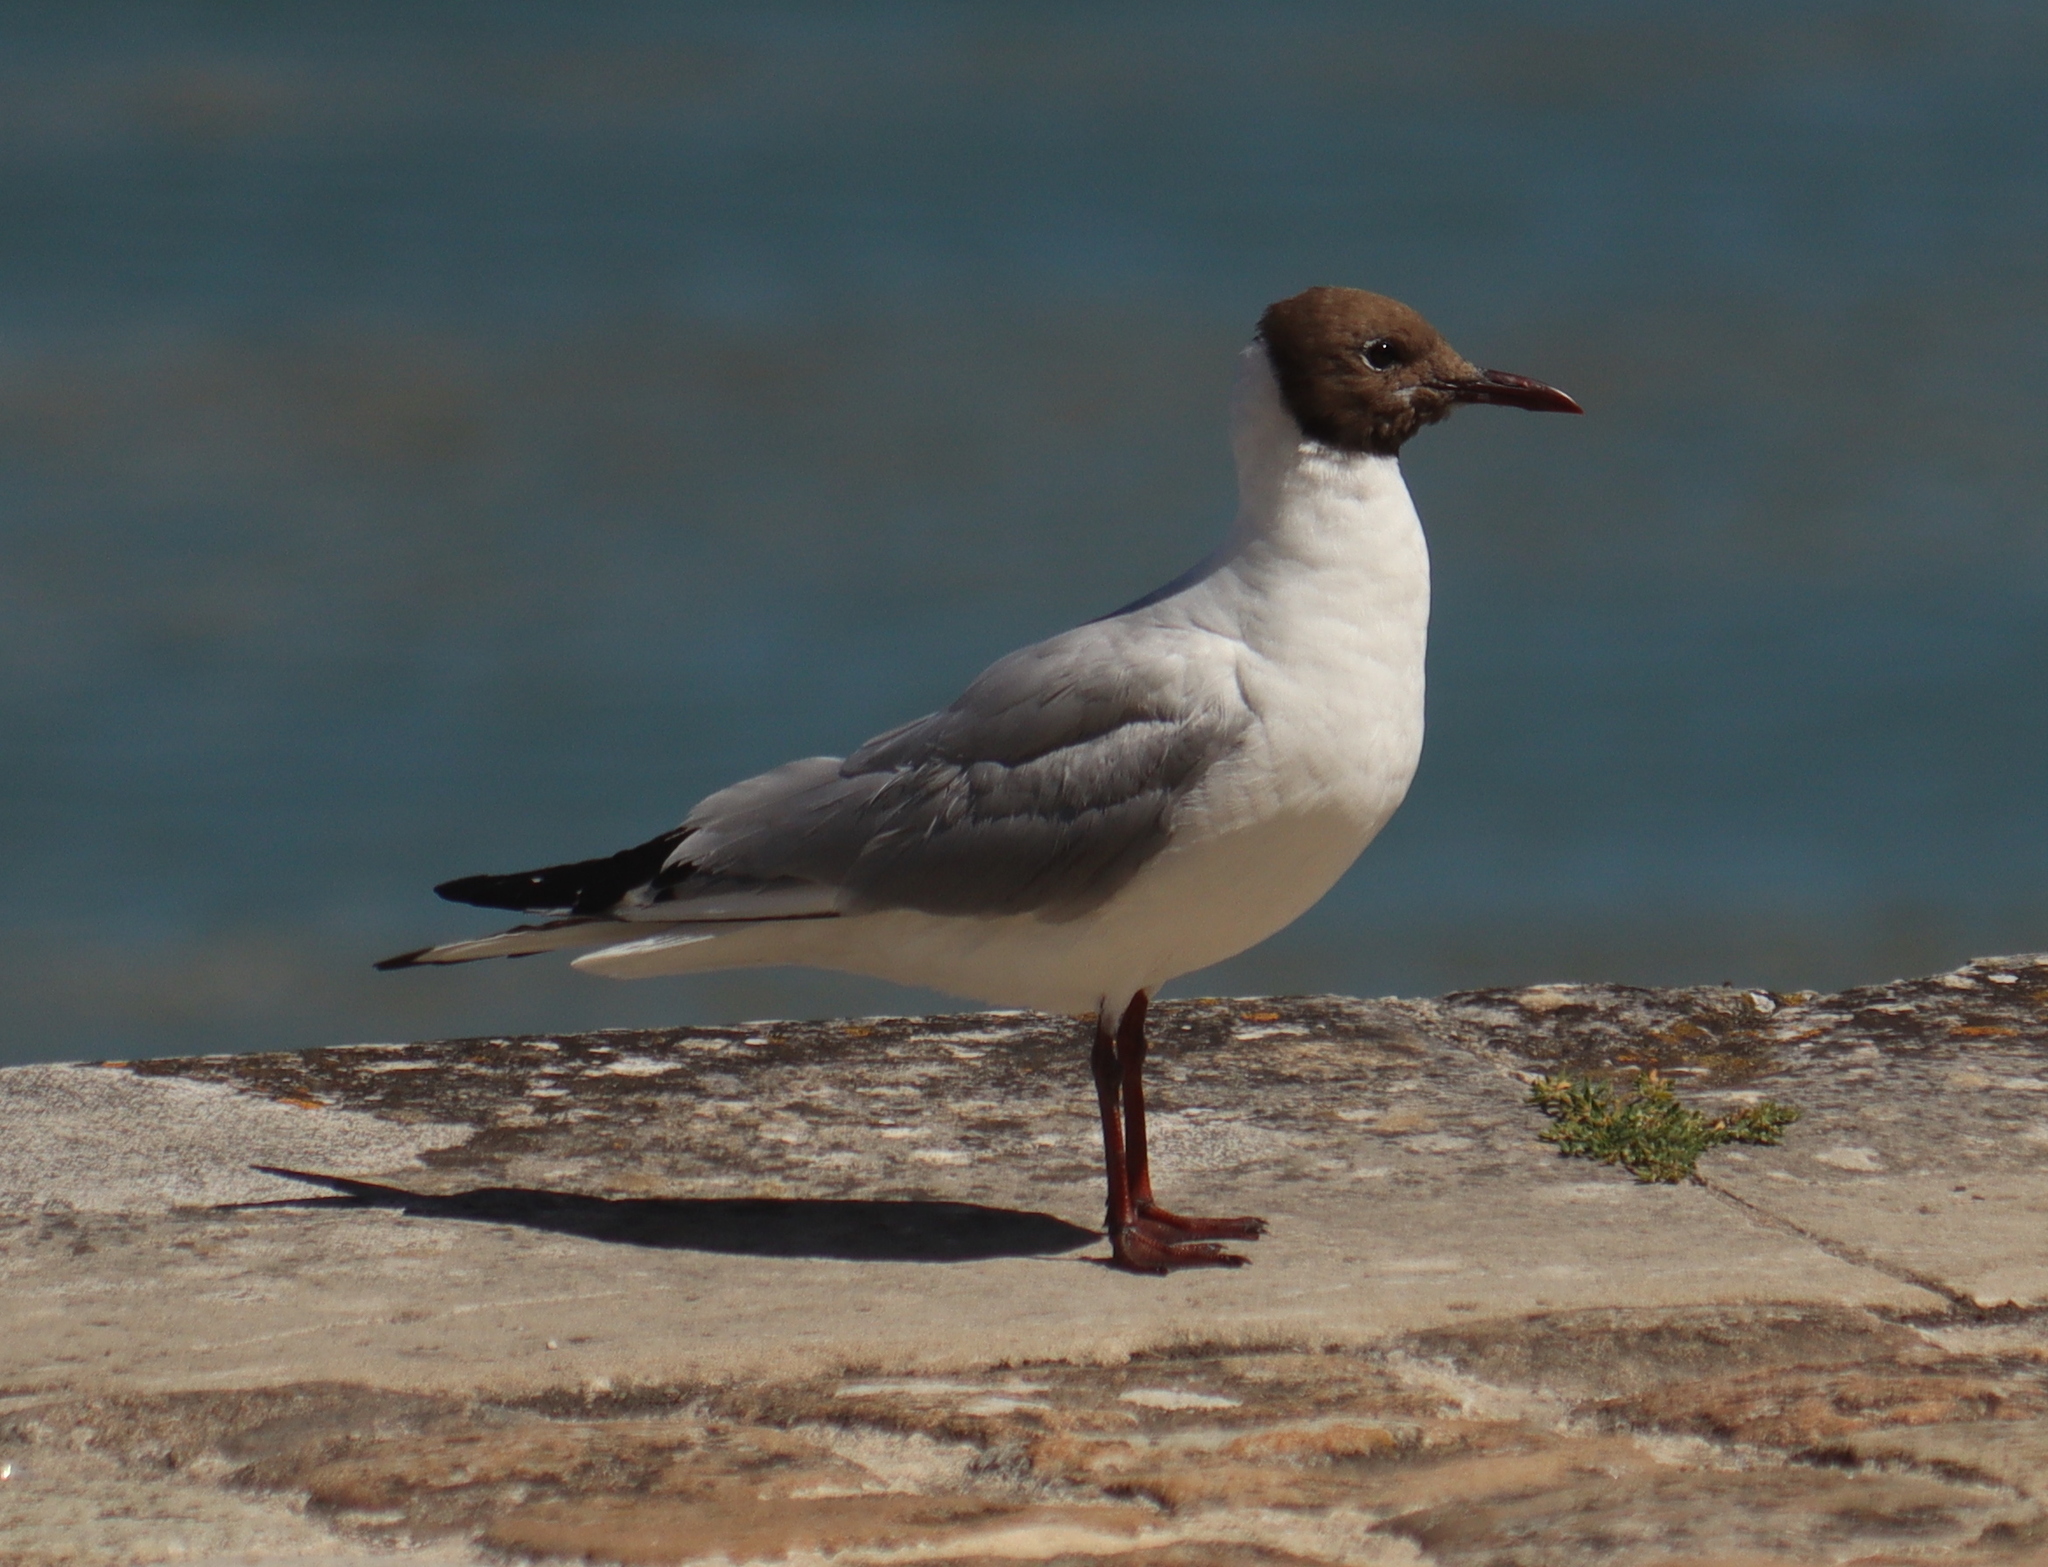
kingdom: Animalia
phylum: Chordata
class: Aves
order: Charadriiformes
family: Laridae
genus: Chroicocephalus
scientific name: Chroicocephalus ridibundus
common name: Black-headed gull
